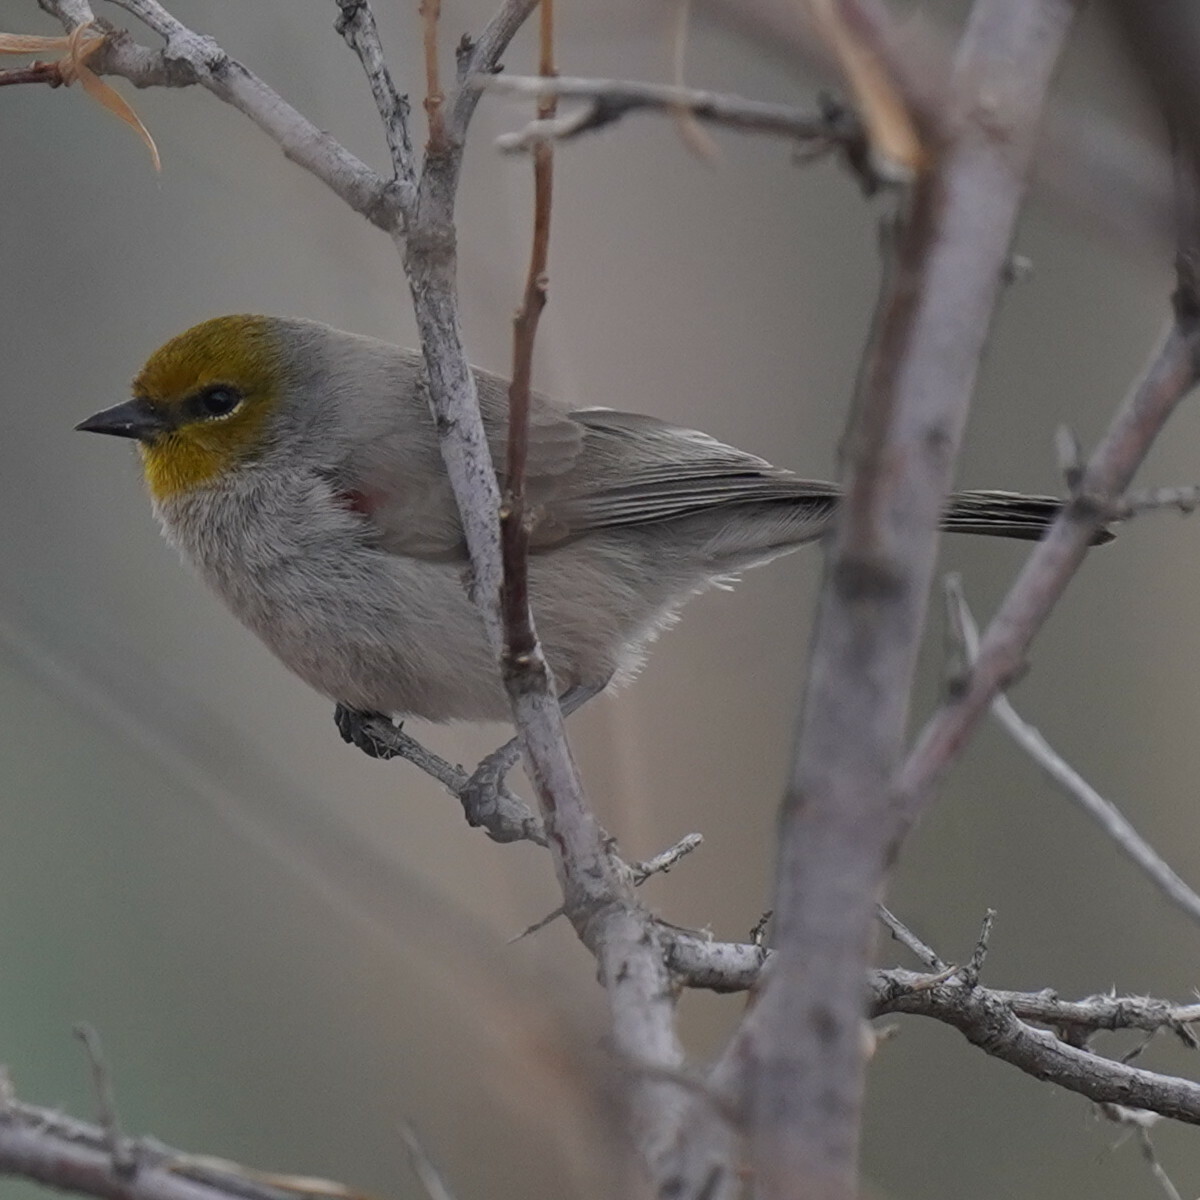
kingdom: Animalia
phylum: Chordata
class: Aves
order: Passeriformes
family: Remizidae
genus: Auriparus
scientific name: Auriparus flaviceps
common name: Verdin
